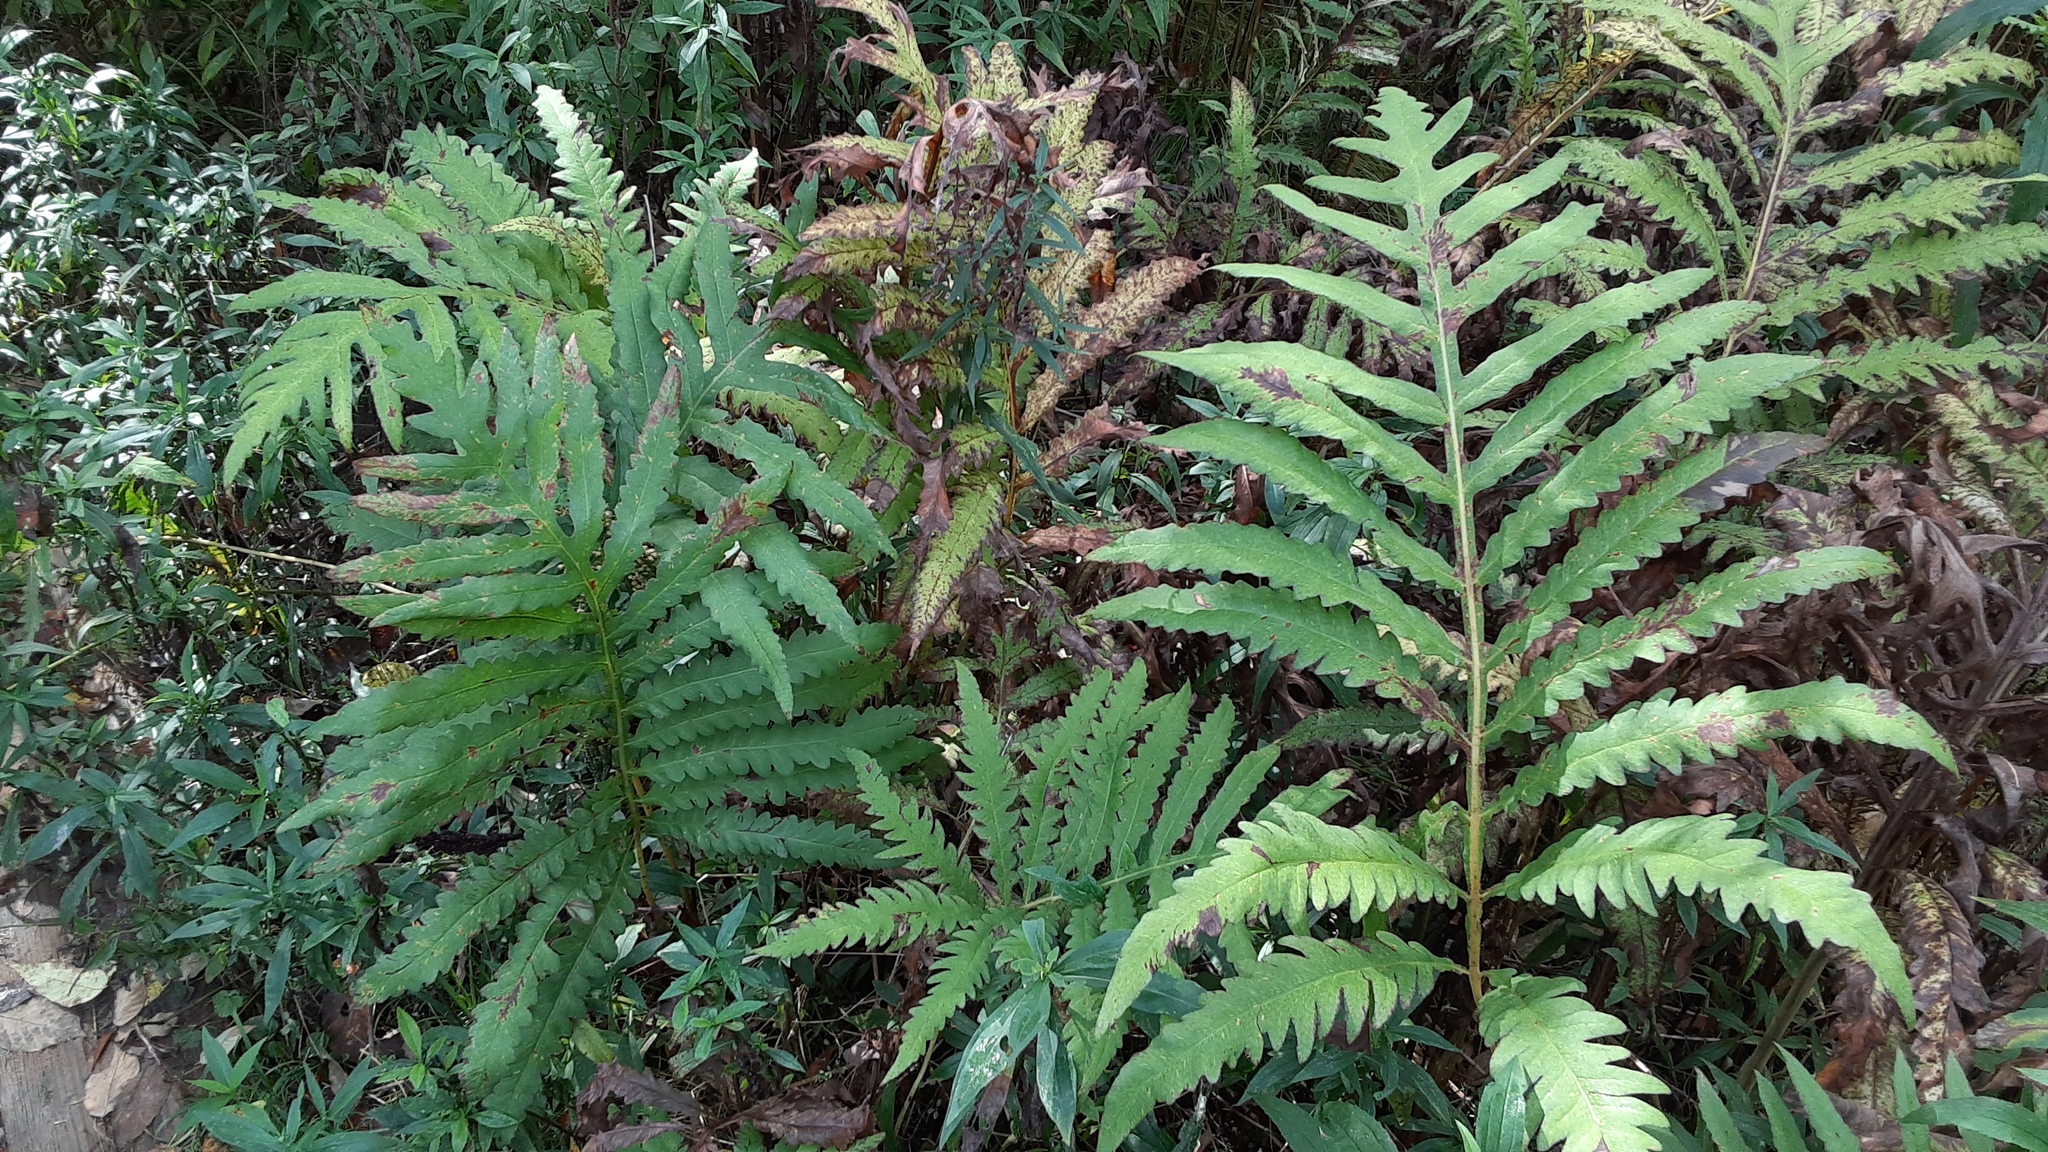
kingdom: Plantae
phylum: Tracheophyta
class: Polypodiopsida
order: Polypodiales
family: Onocleaceae
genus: Onoclea
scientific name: Onoclea sensibilis
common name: Sensitive fern
